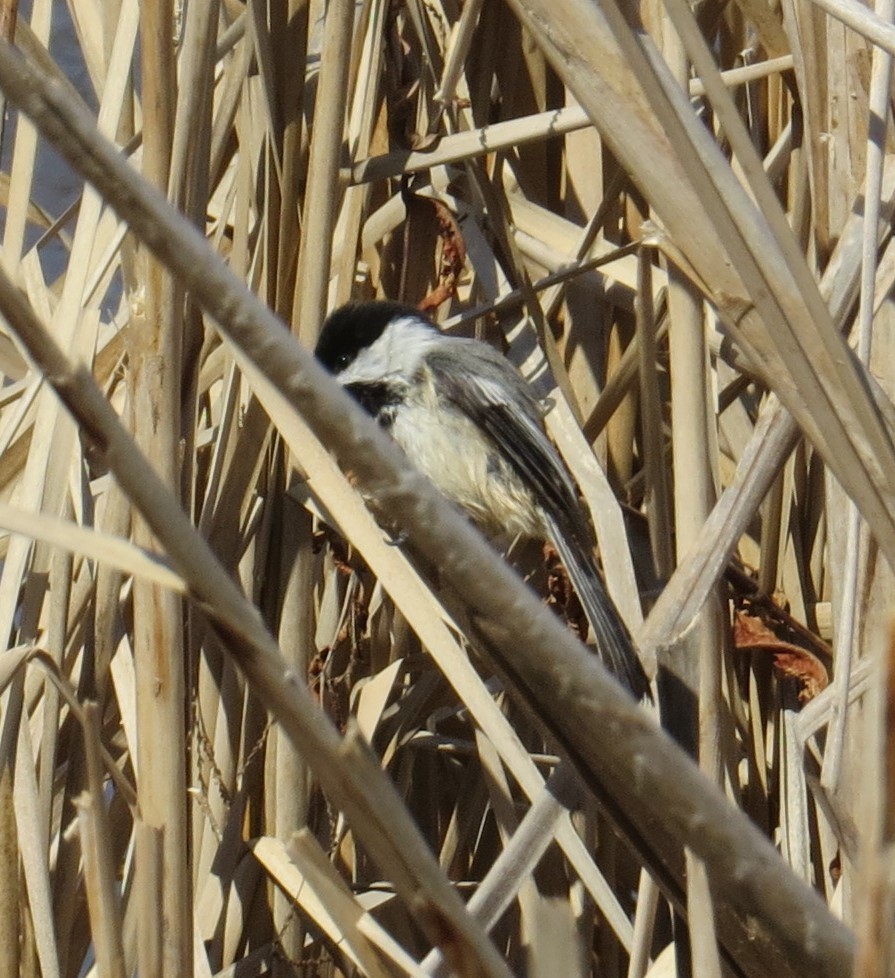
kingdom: Animalia
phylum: Chordata
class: Aves
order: Passeriformes
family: Paridae
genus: Poecile
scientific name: Poecile atricapillus
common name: Black-capped chickadee
